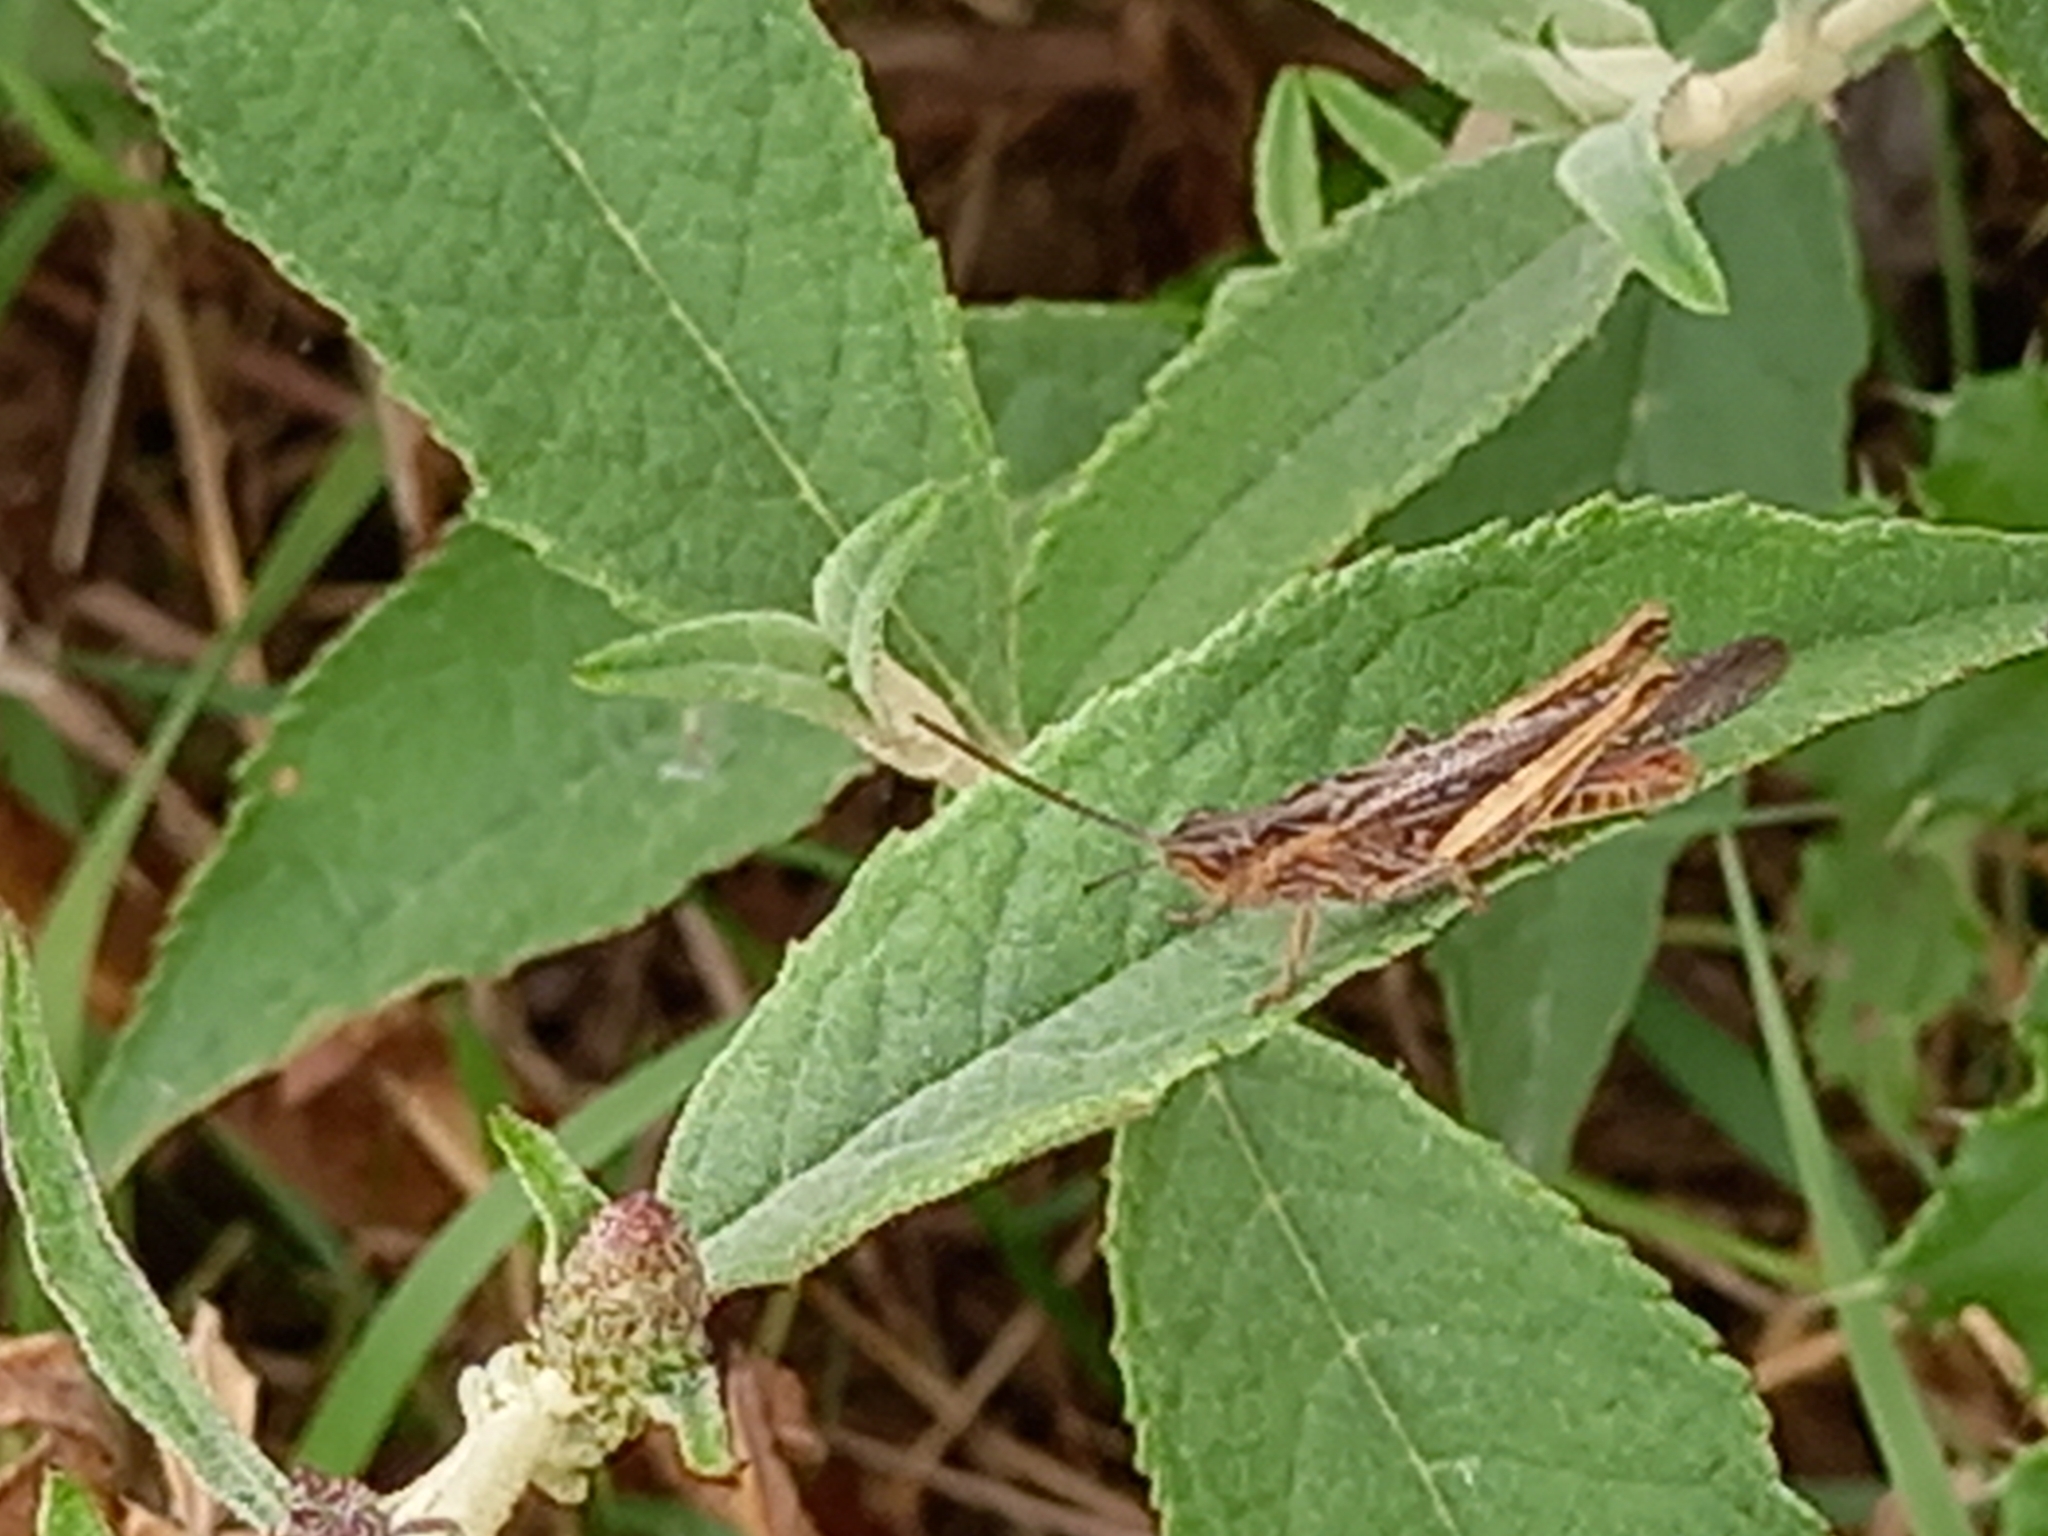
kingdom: Animalia
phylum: Arthropoda
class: Insecta
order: Orthoptera
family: Acrididae
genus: Chorthippus
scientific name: Chorthippus brunneus
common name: Field grasshopper
